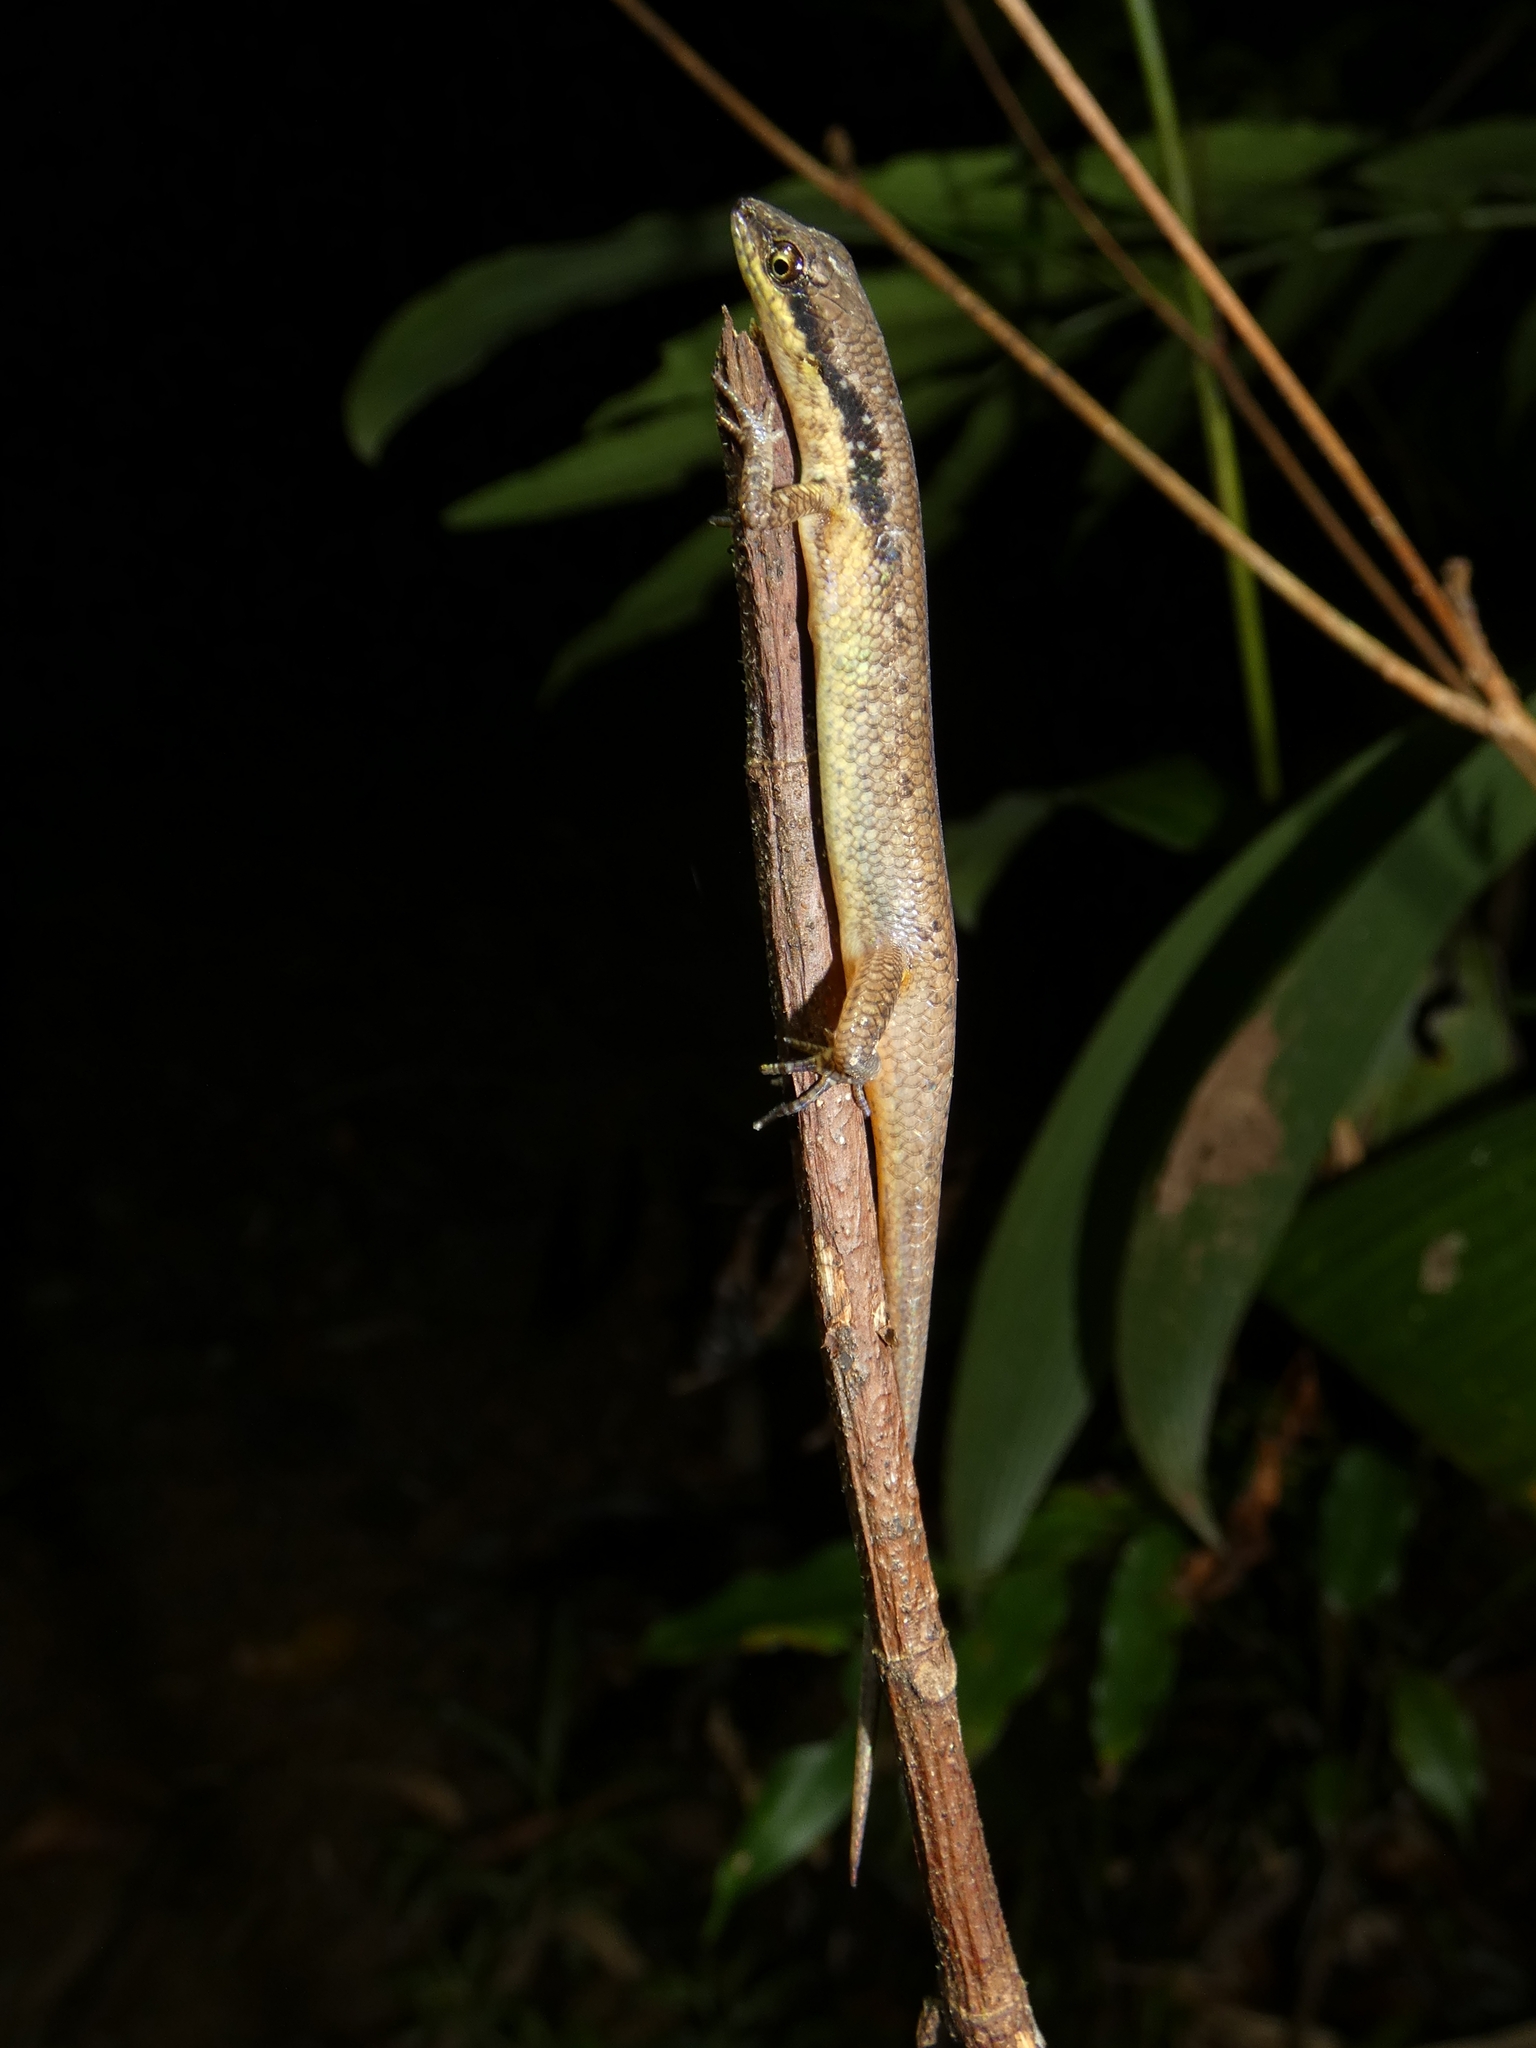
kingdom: Animalia
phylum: Chordata
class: Squamata
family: Scincidae
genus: Saproscincus
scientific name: Saproscincus basiliscus
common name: Pale-lipped shadeskink
